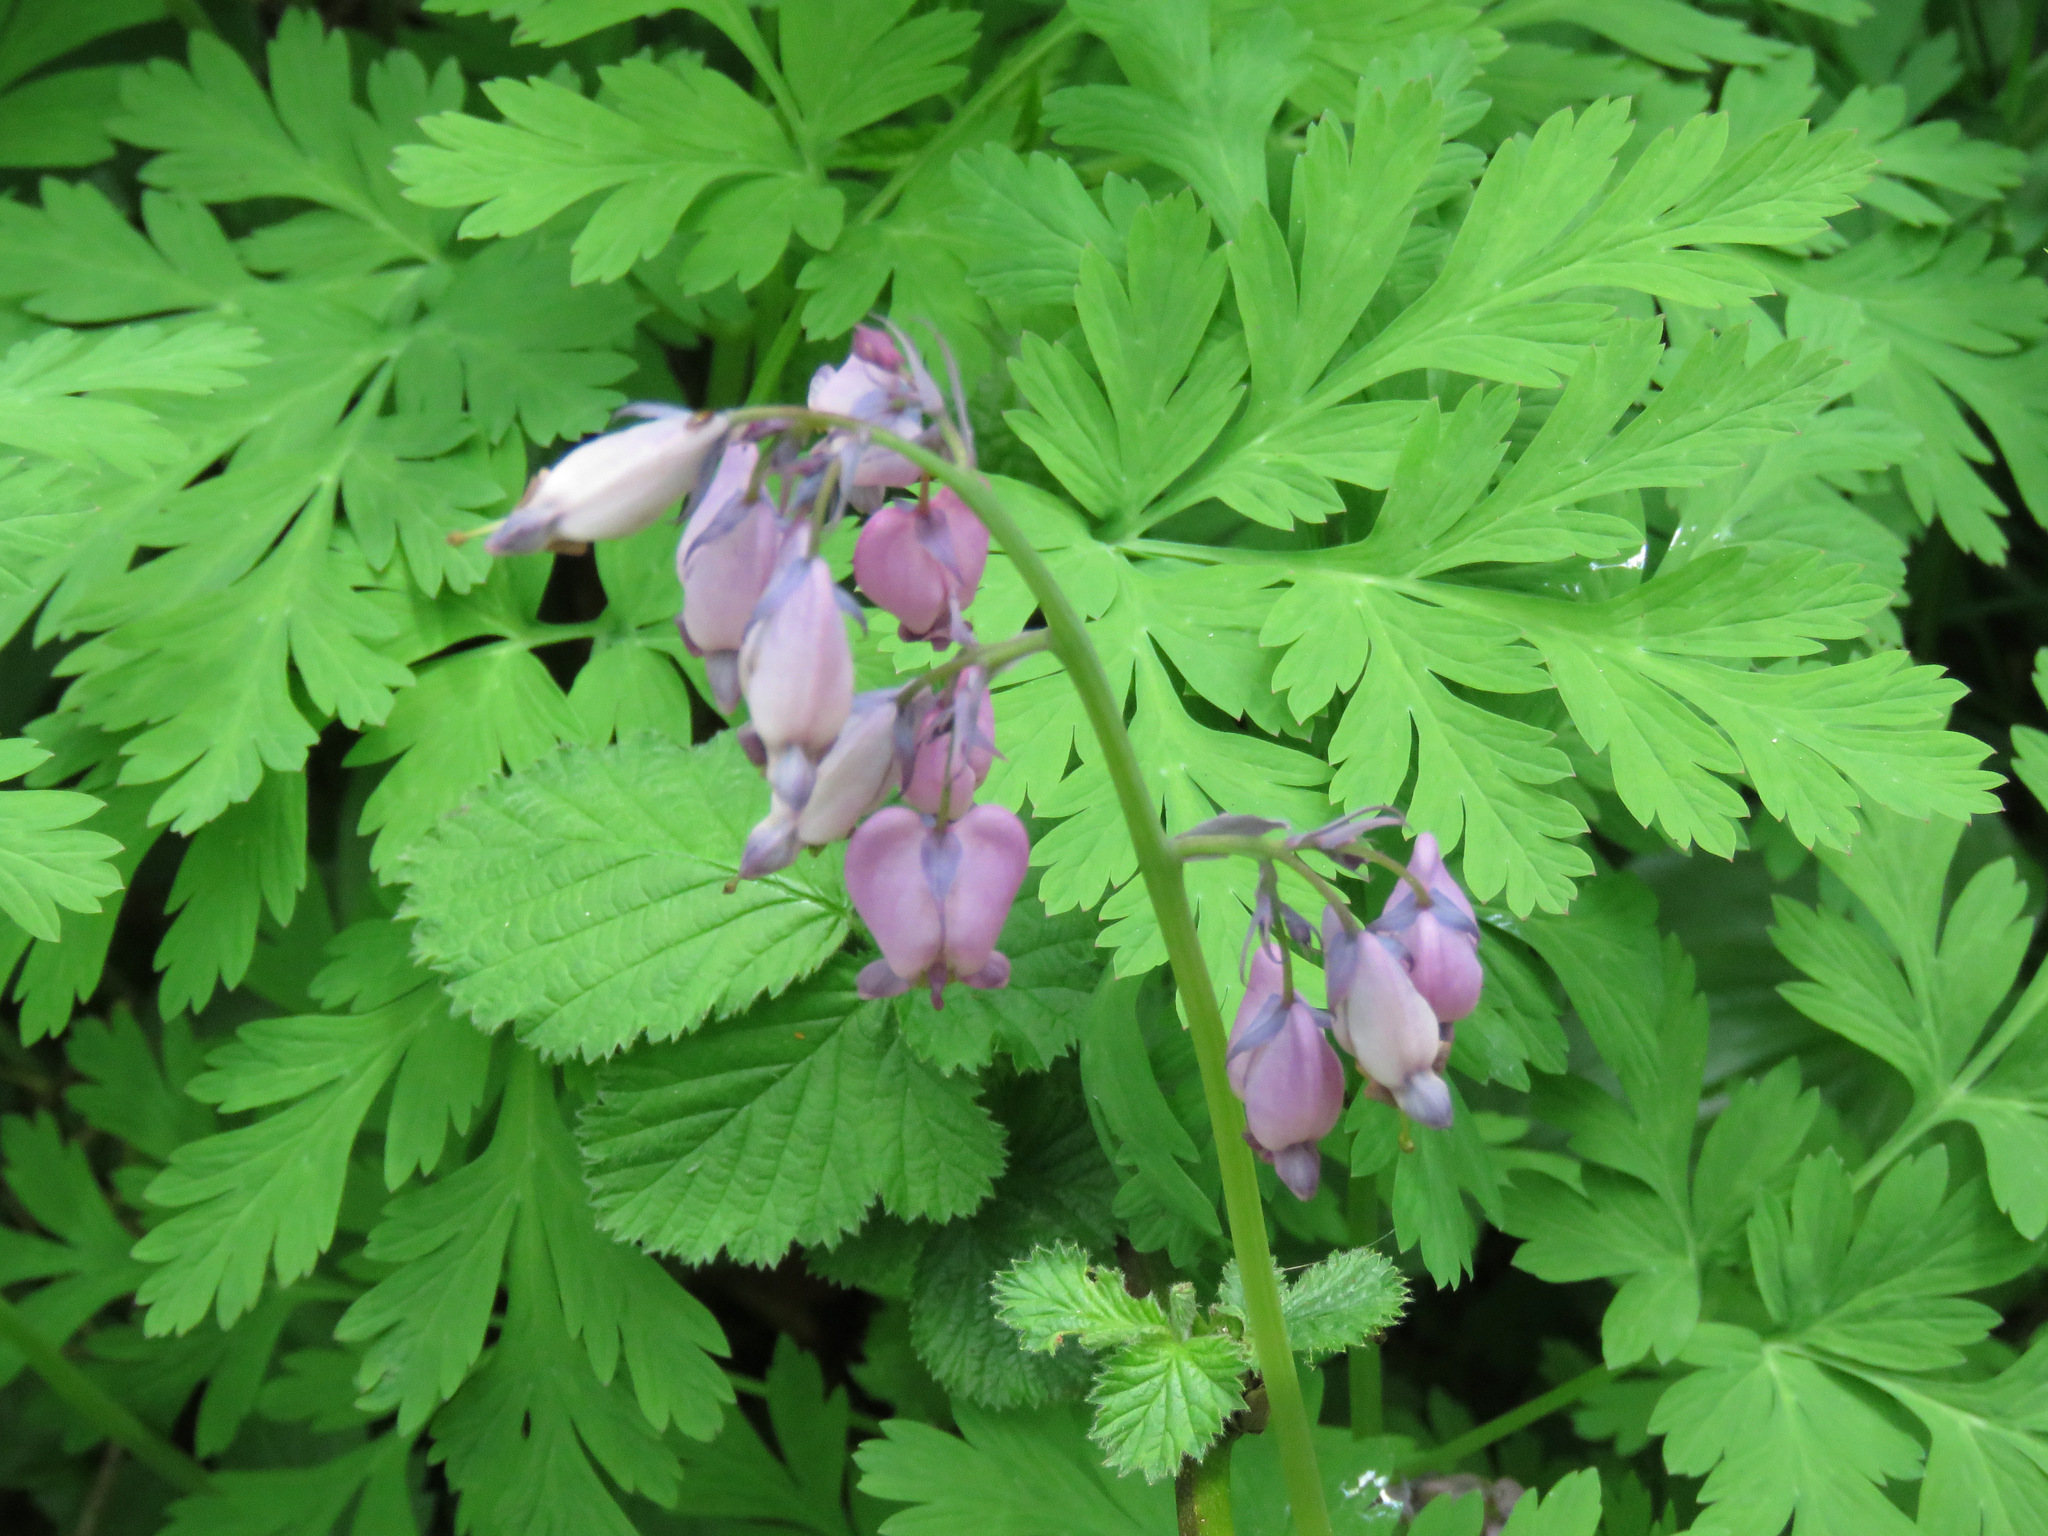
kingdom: Plantae
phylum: Tracheophyta
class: Magnoliopsida
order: Ranunculales
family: Papaveraceae
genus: Dicentra
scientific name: Dicentra formosa
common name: Bleeding-heart
